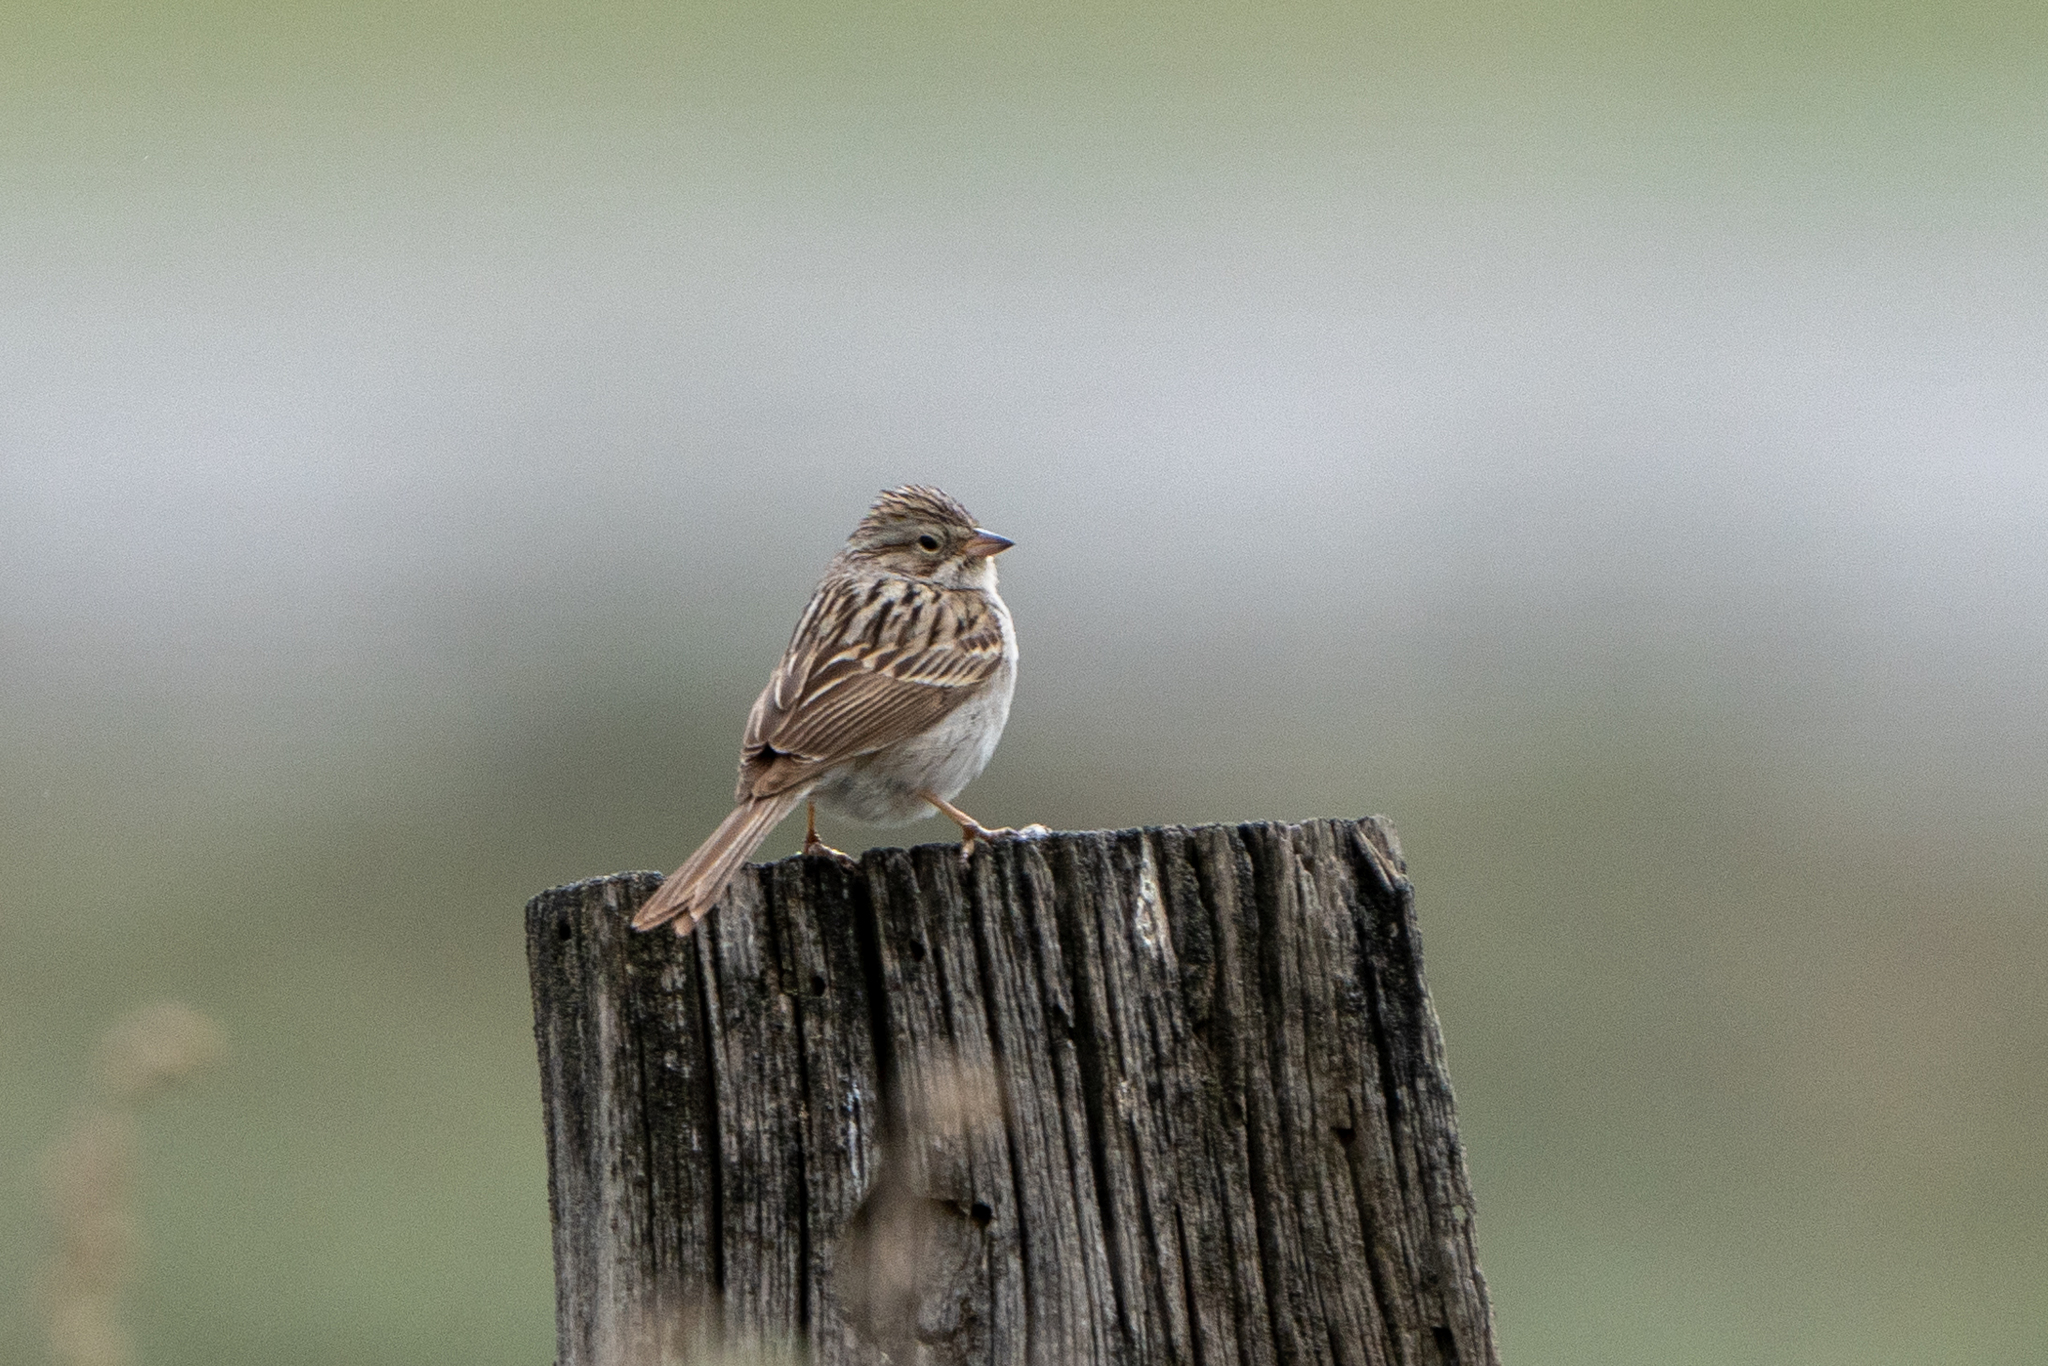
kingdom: Animalia
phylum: Chordata
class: Aves
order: Passeriformes
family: Passerellidae
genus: Spizella
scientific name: Spizella breweri
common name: Brewer's sparrow
